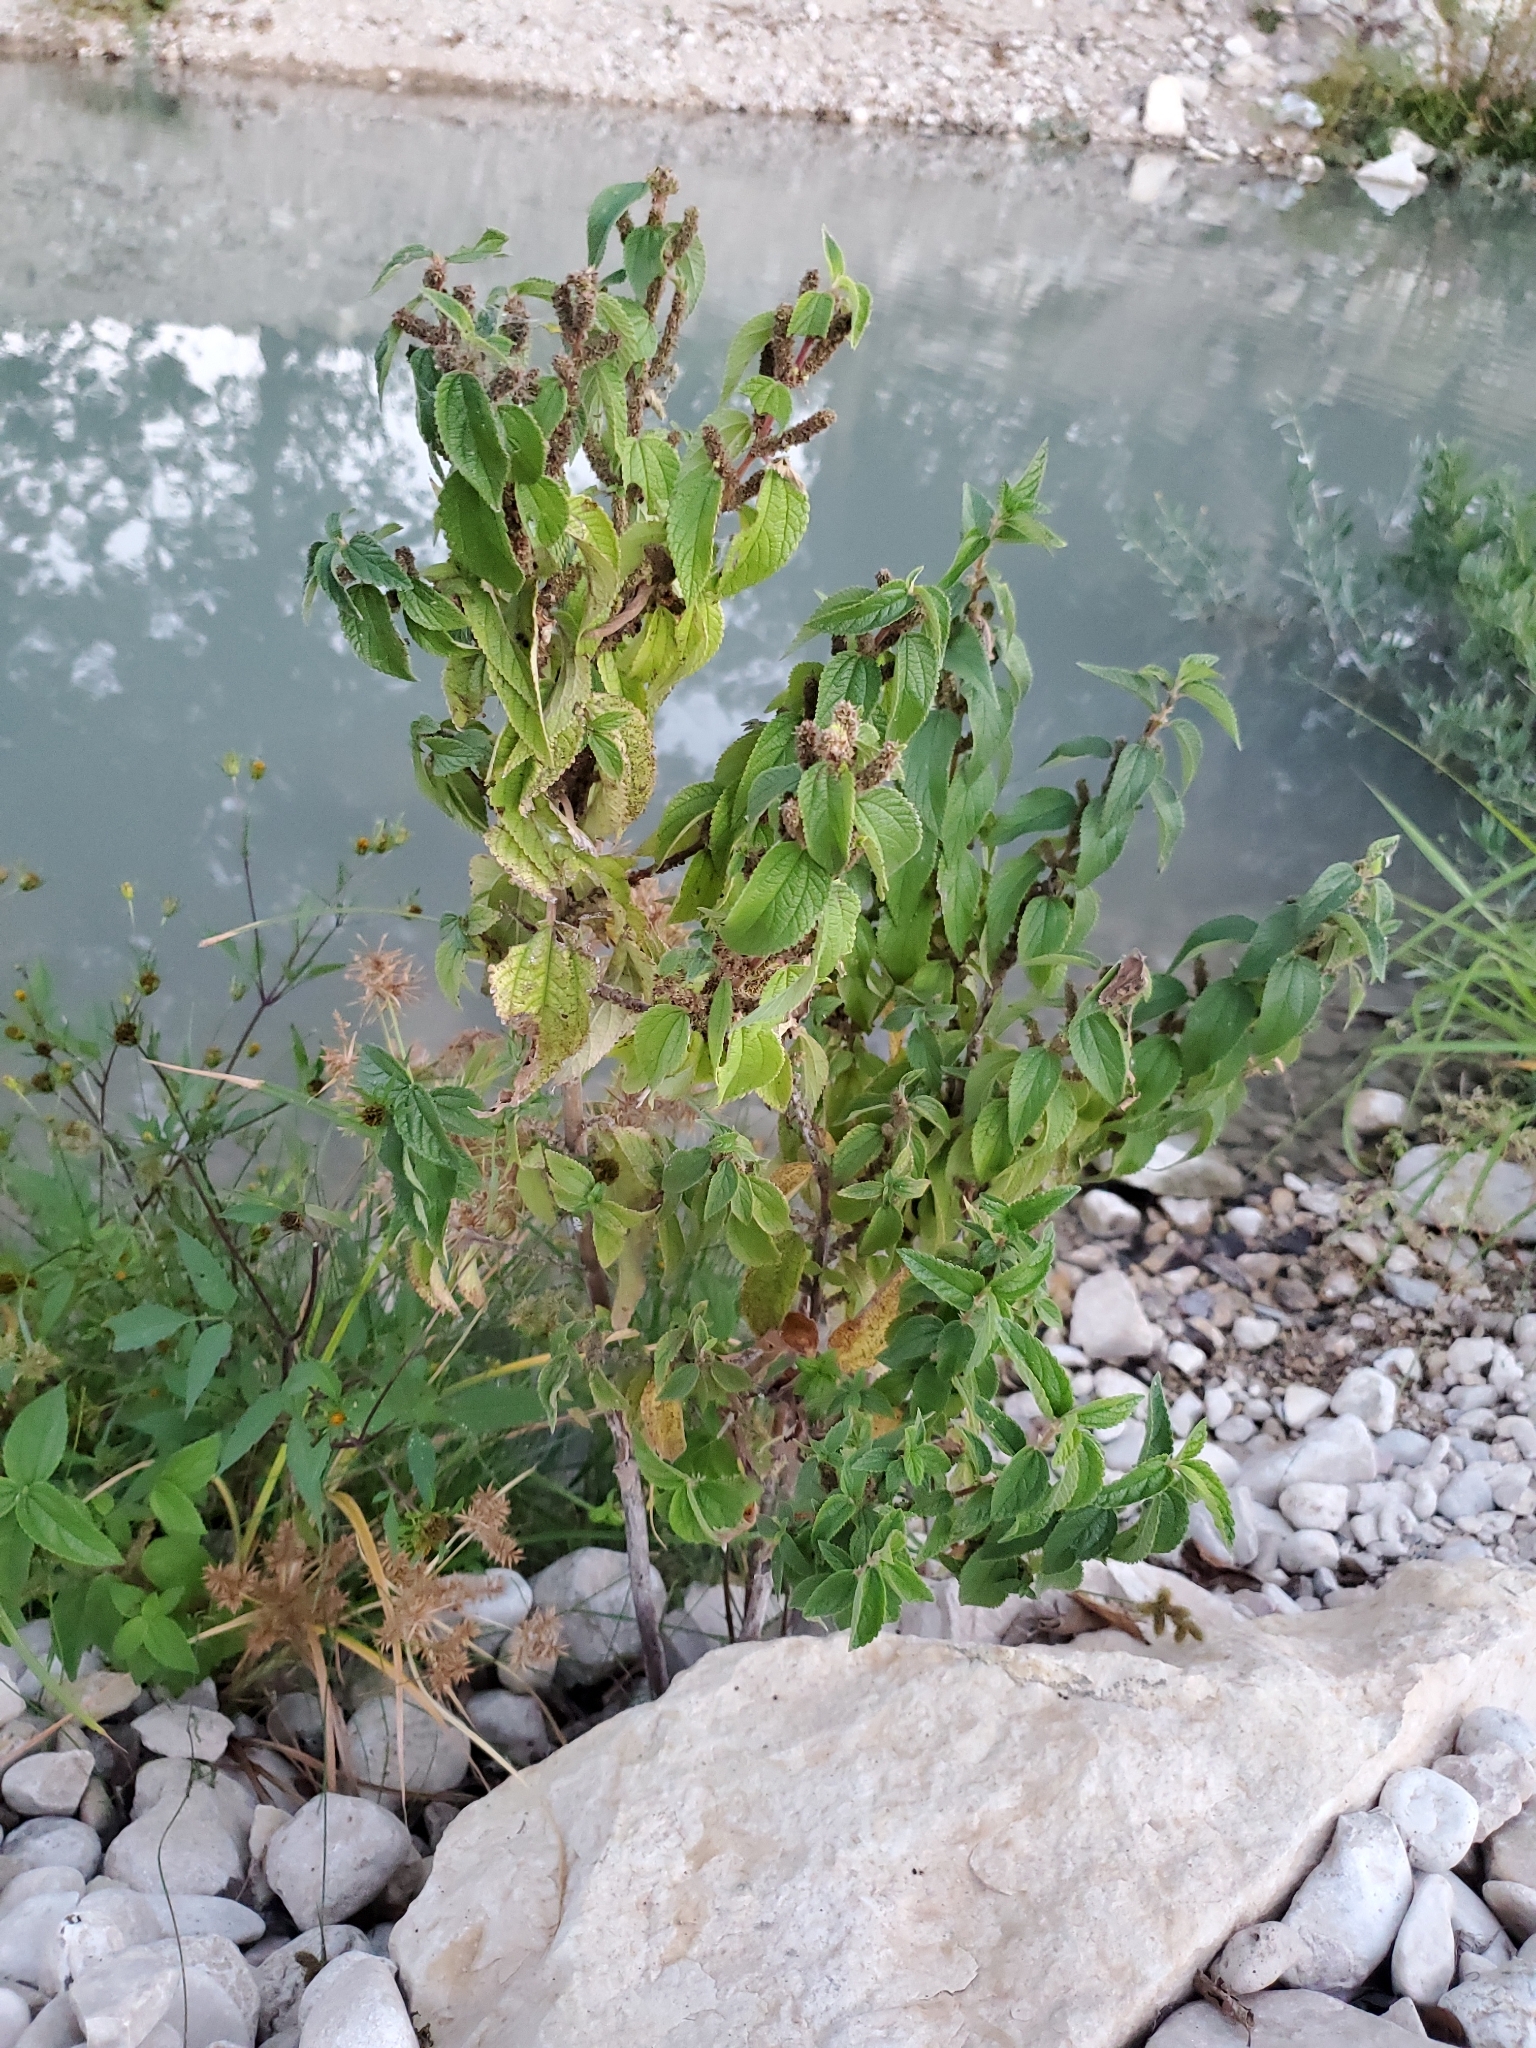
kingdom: Plantae
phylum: Tracheophyta
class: Magnoliopsida
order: Rosales
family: Urticaceae
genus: Boehmeria
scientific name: Boehmeria cylindrica
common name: Bog-hemp
